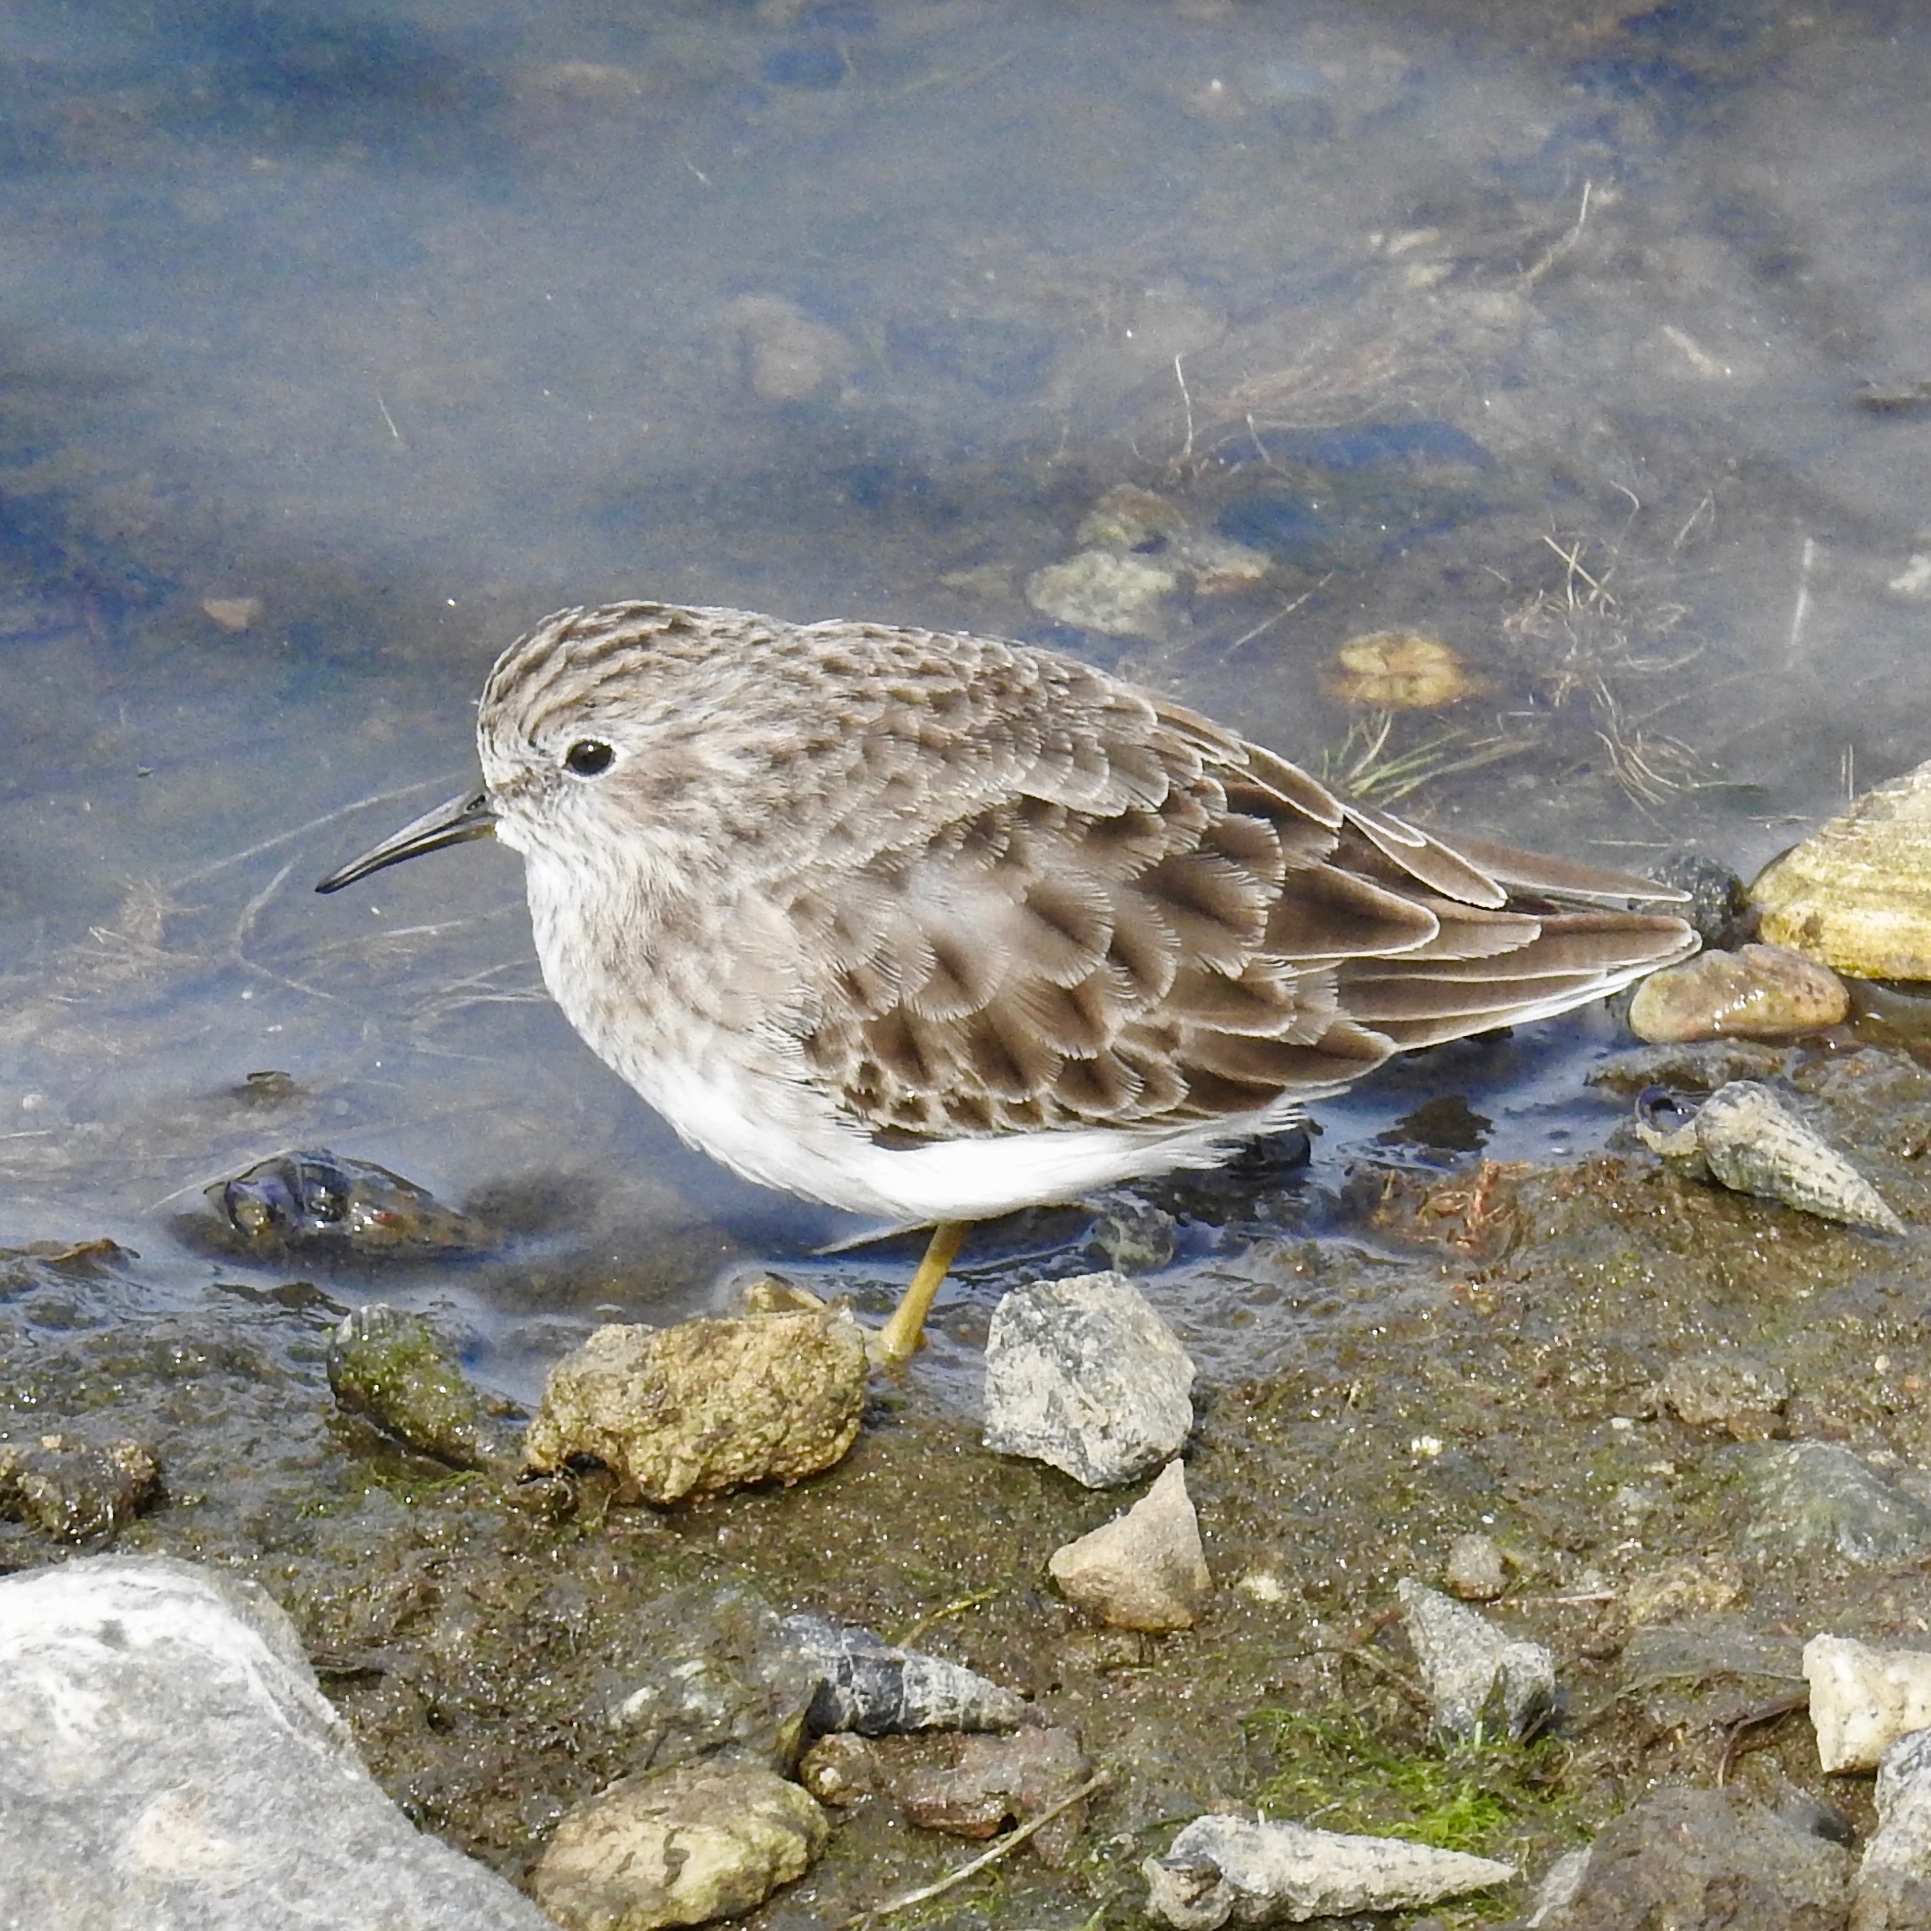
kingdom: Animalia
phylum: Chordata
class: Aves
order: Charadriiformes
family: Scolopacidae
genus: Calidris
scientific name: Calidris minutilla
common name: Least sandpiper
